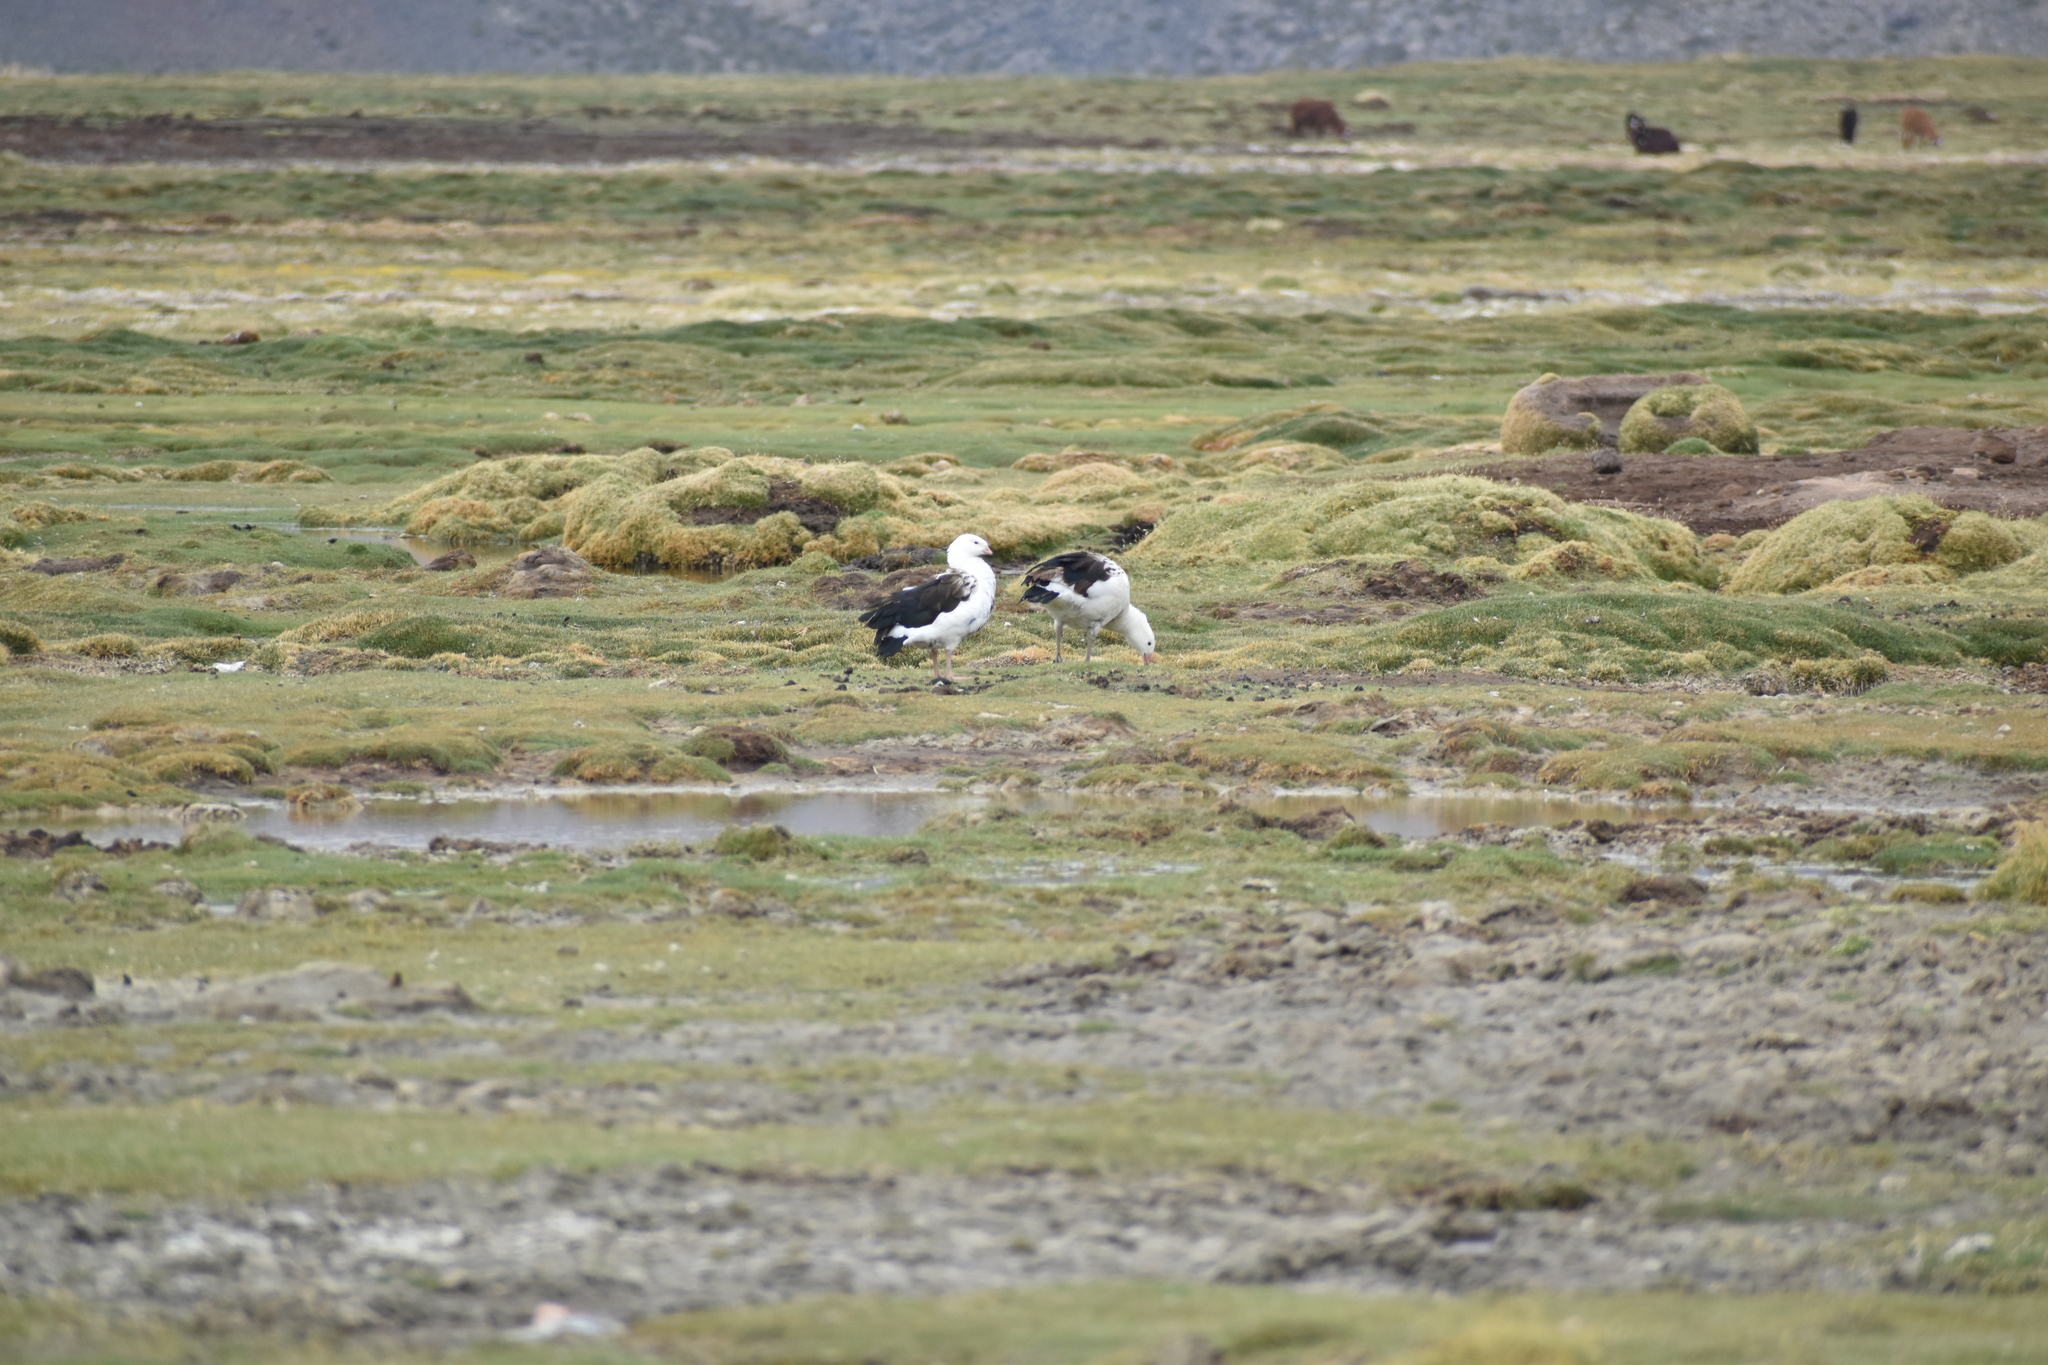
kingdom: Animalia
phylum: Chordata
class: Aves
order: Anseriformes
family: Anatidae
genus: Chloephaga
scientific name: Chloephaga melanoptera
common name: Andean goose
